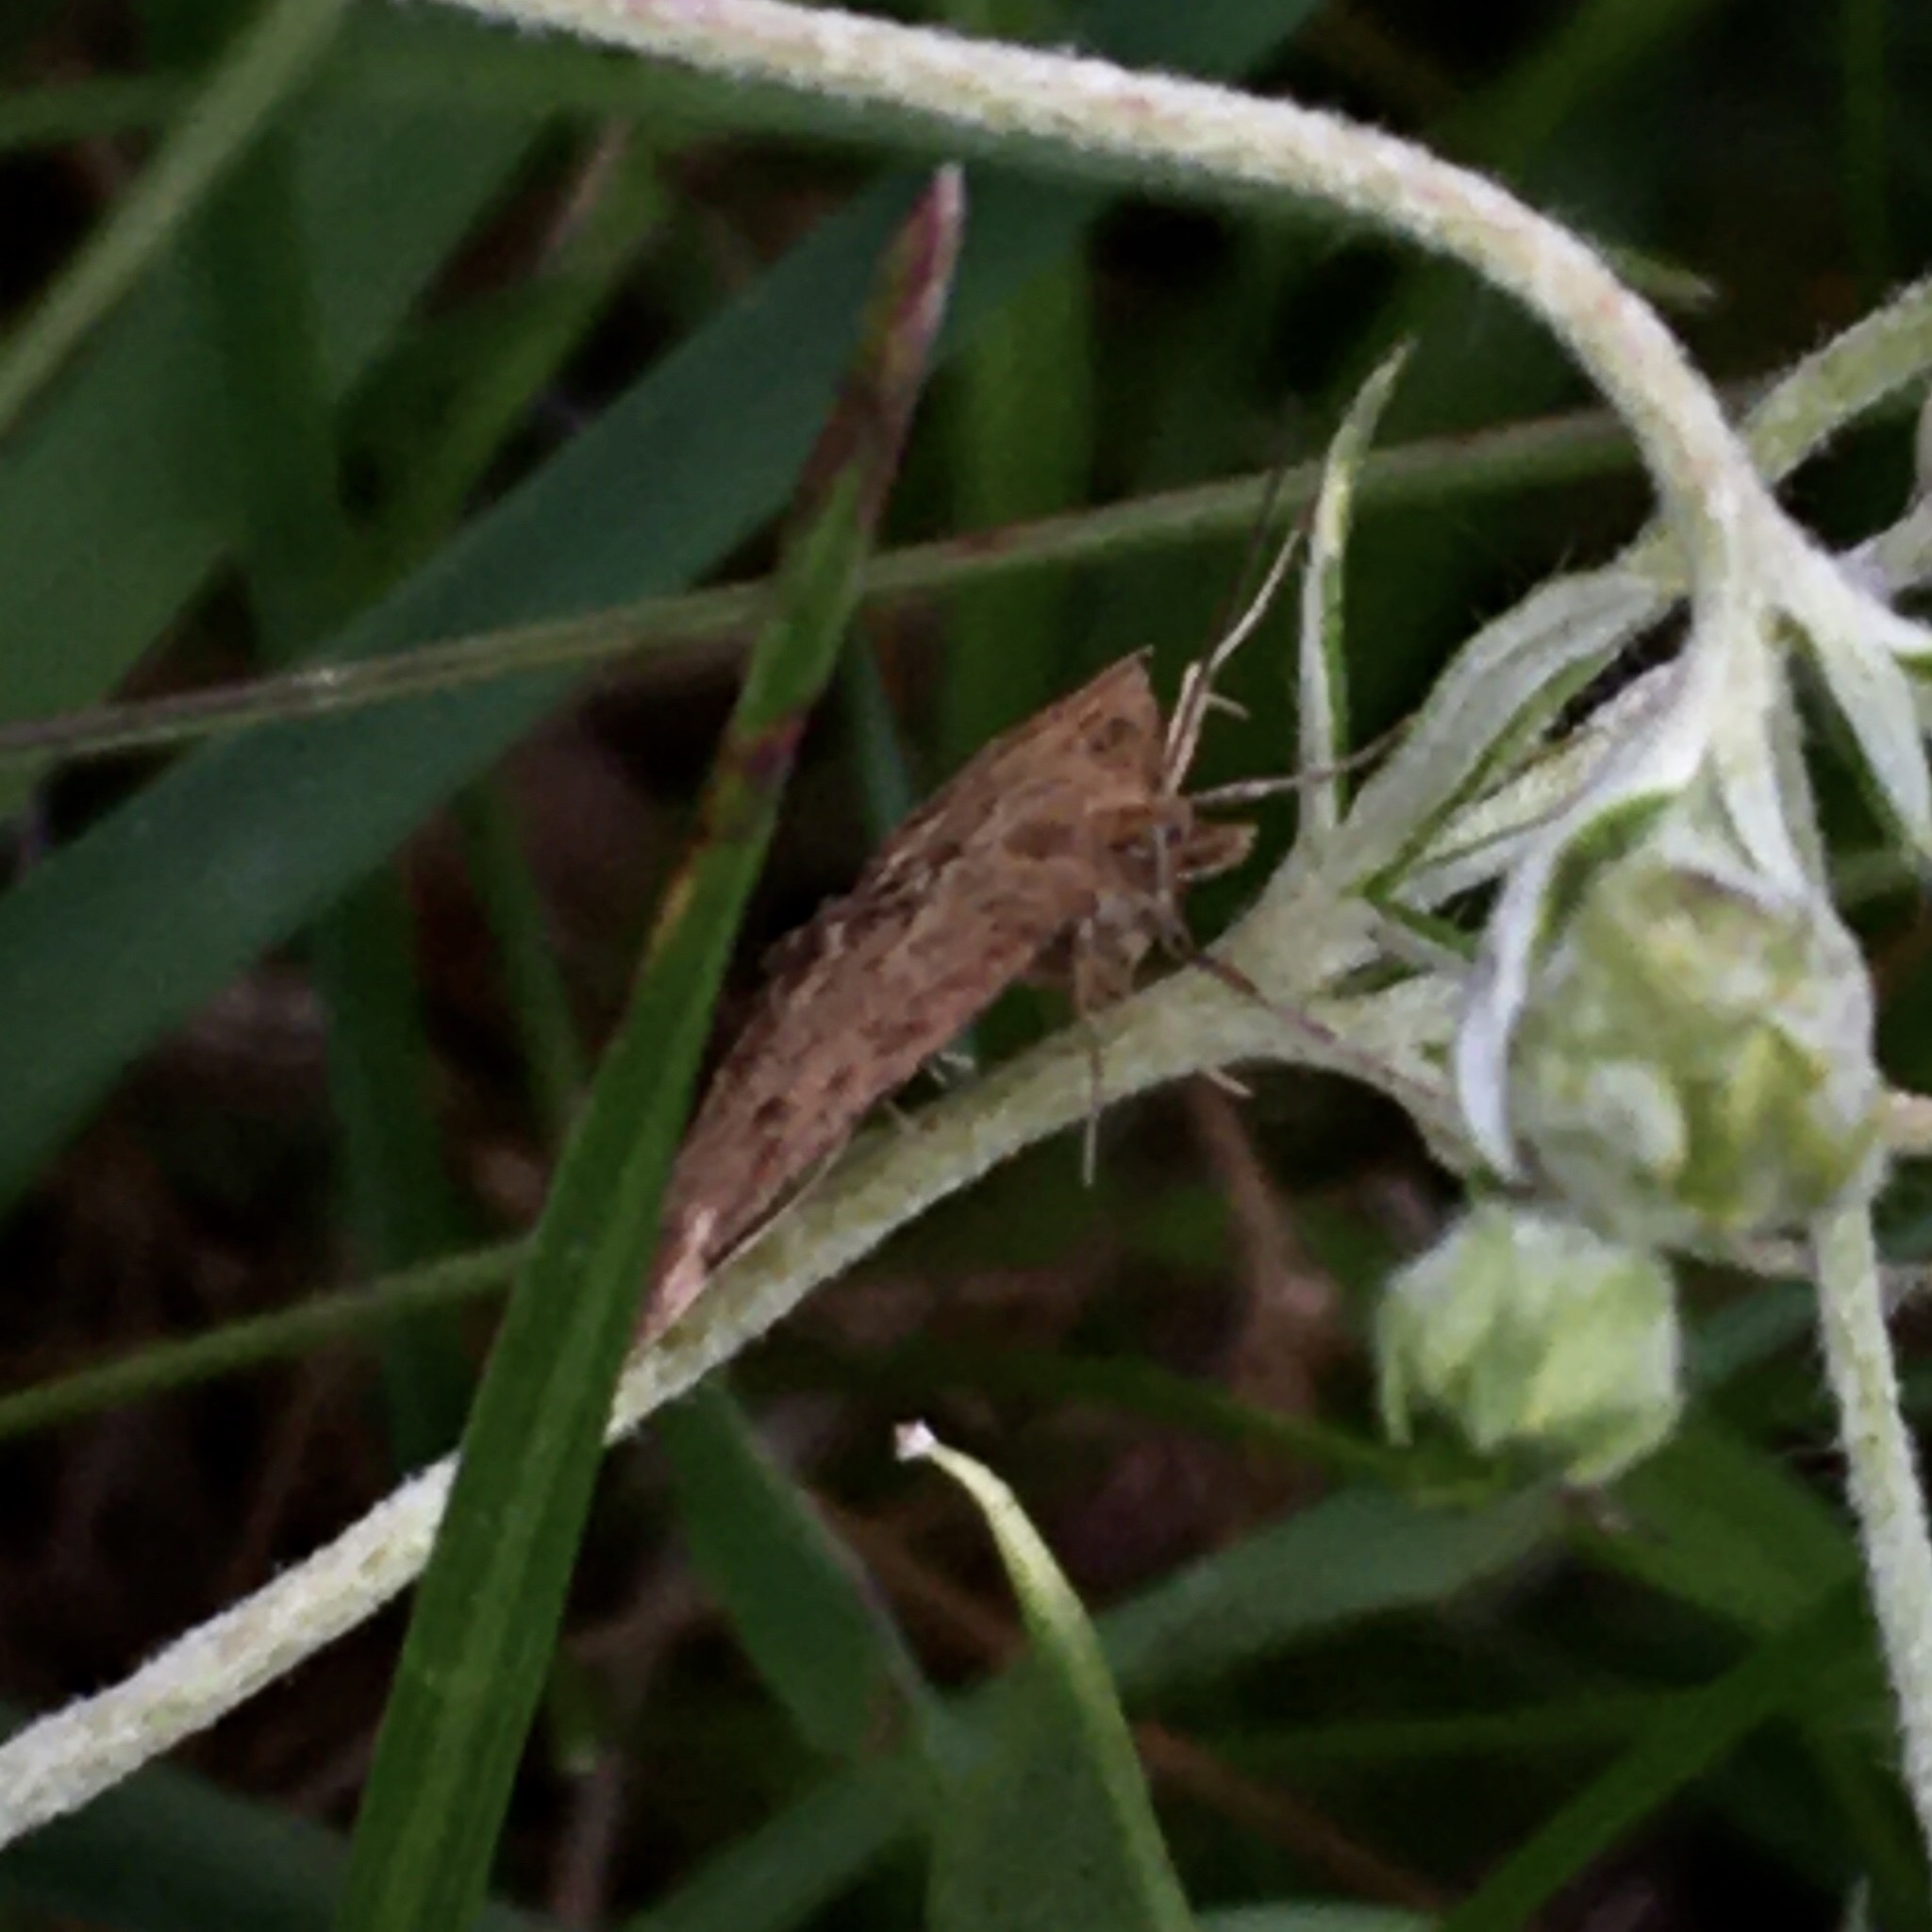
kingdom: Animalia
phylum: Arthropoda
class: Insecta
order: Lepidoptera
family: Crambidae
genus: Pyrausta
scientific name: Pyrausta despicata
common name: Straw-barred pearl
